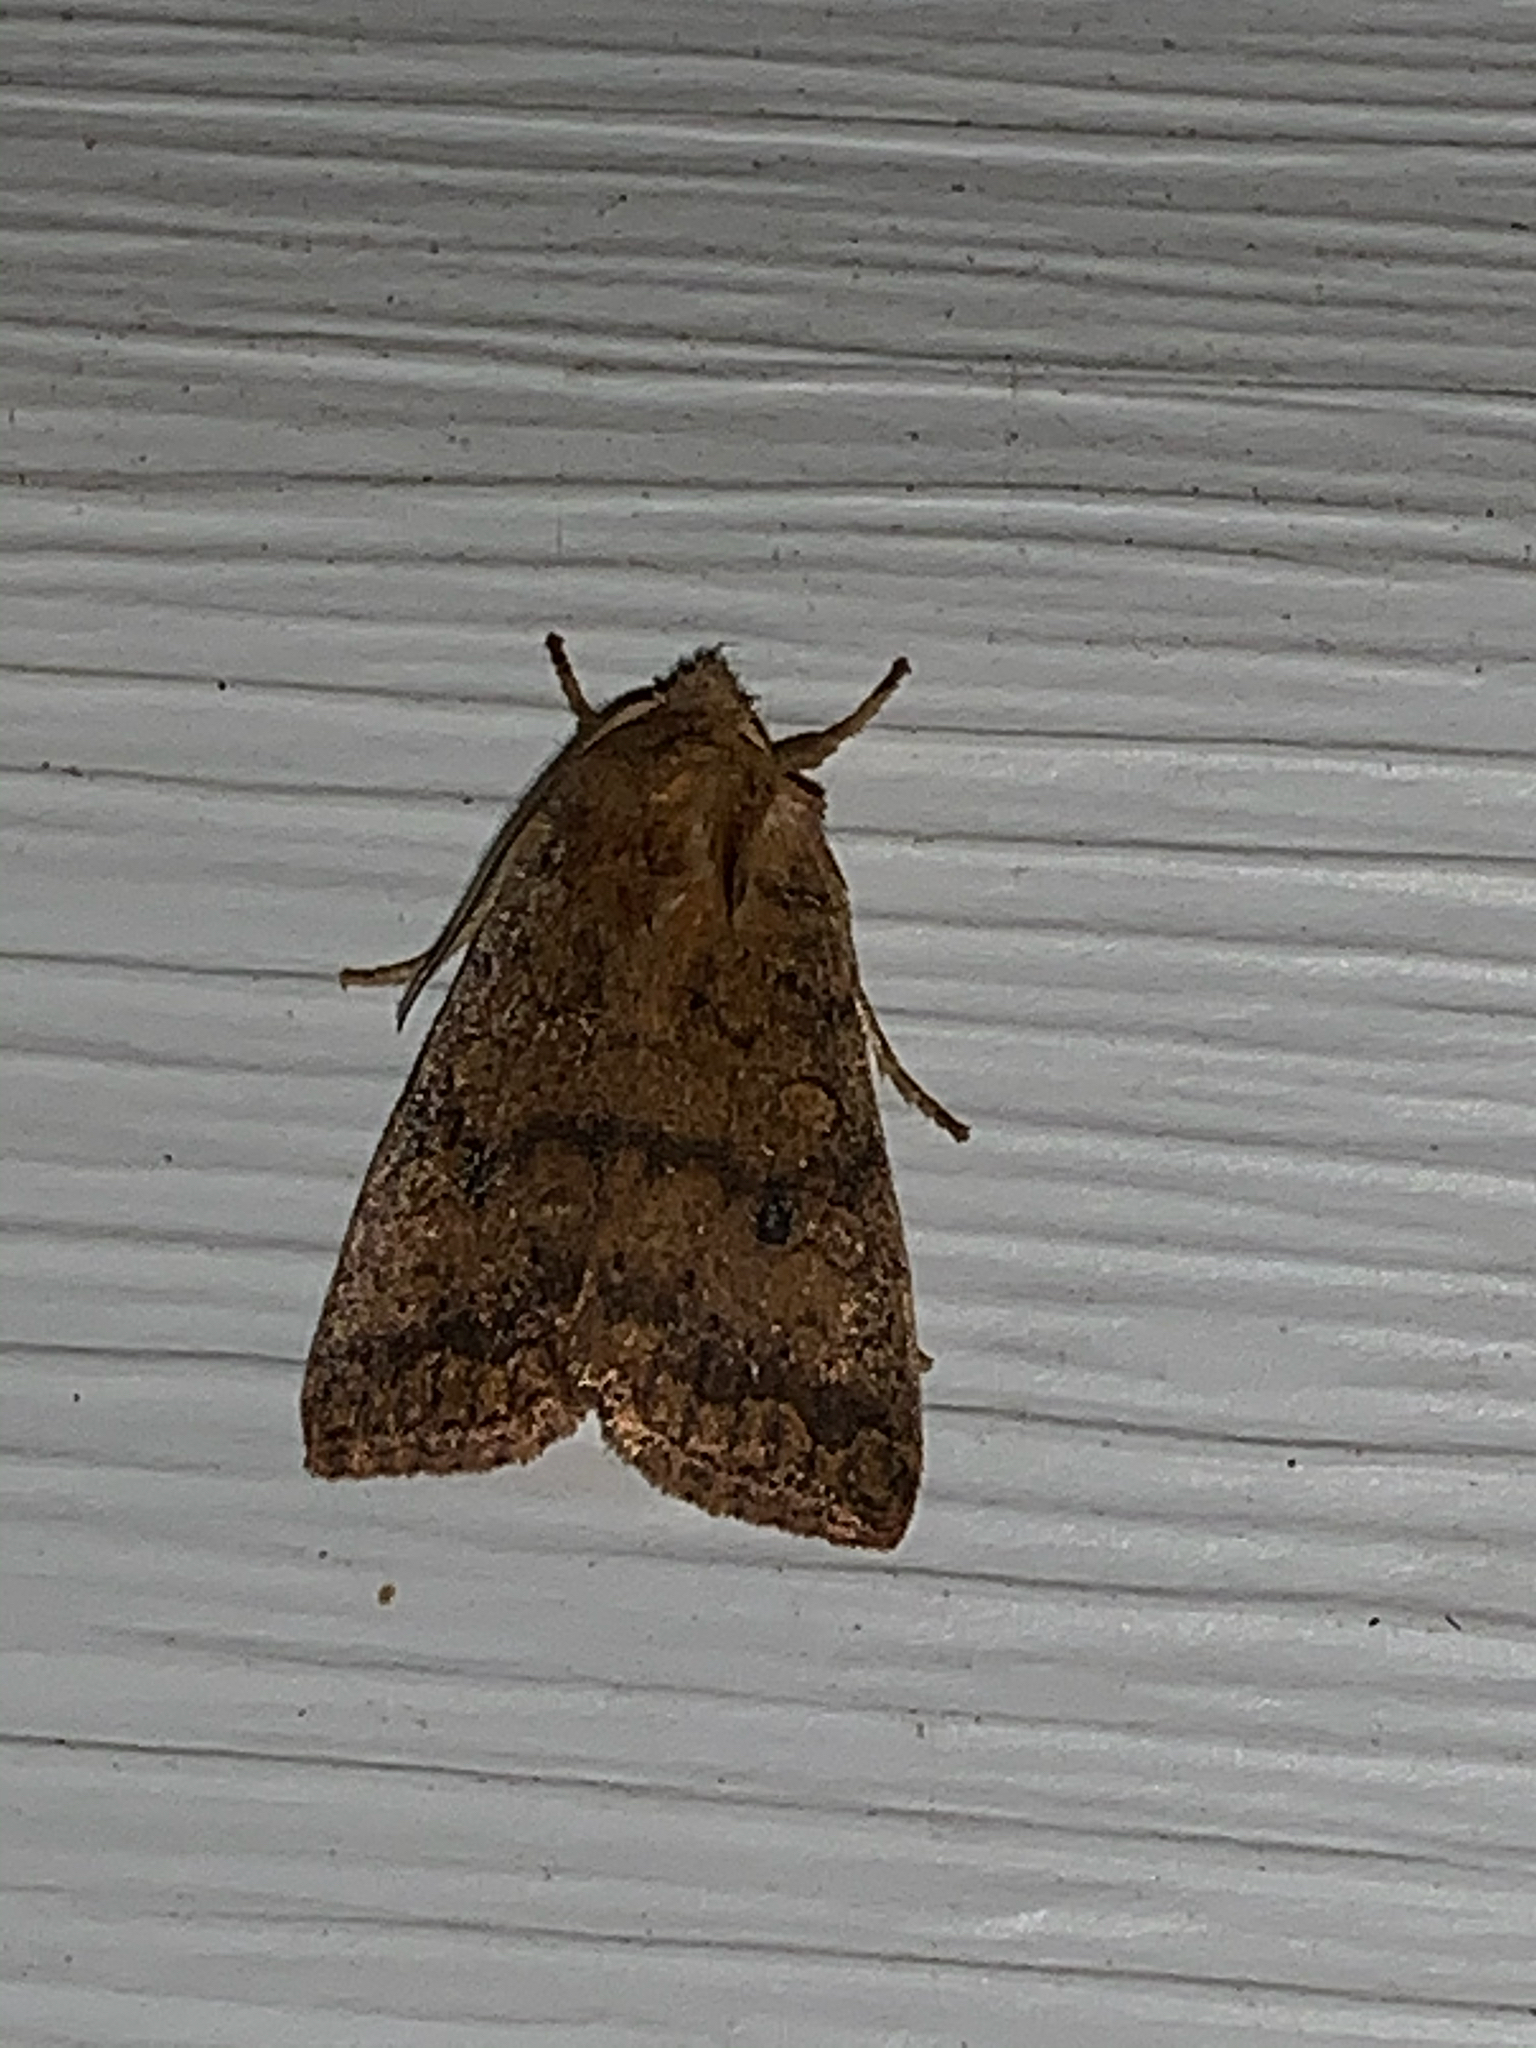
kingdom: Animalia
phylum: Arthropoda
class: Insecta
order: Lepidoptera
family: Noctuidae
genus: Agrochola
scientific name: Agrochola bicolorago
